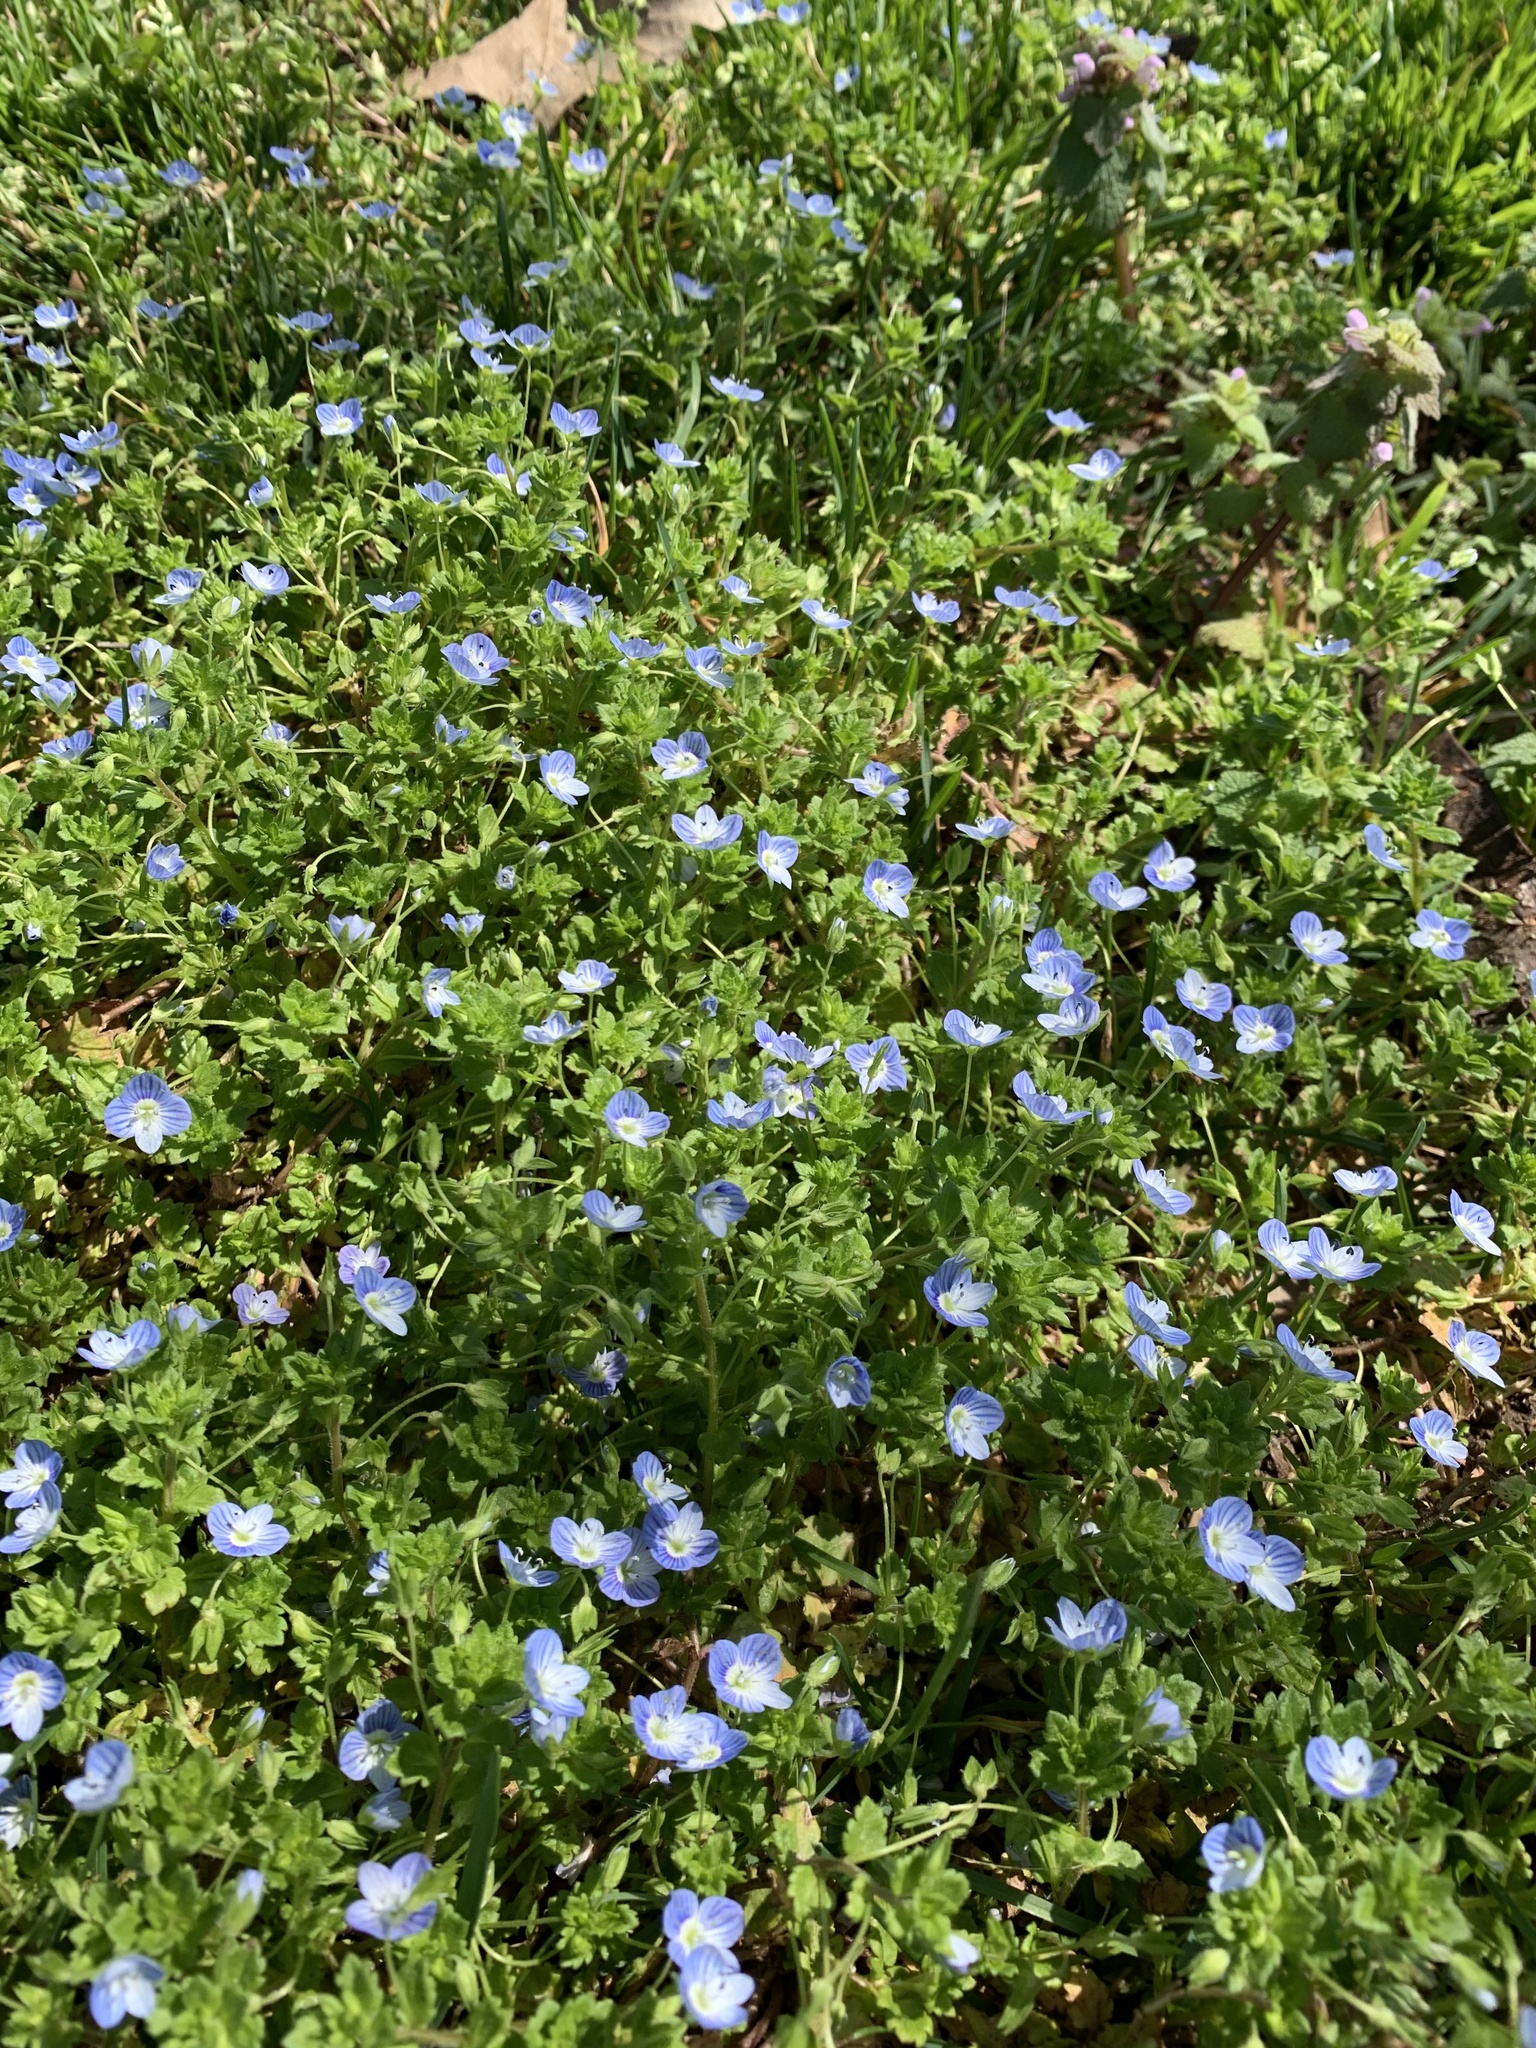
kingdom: Plantae
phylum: Tracheophyta
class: Magnoliopsida
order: Lamiales
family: Plantaginaceae
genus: Veronica
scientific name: Veronica persica
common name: Common field-speedwell
